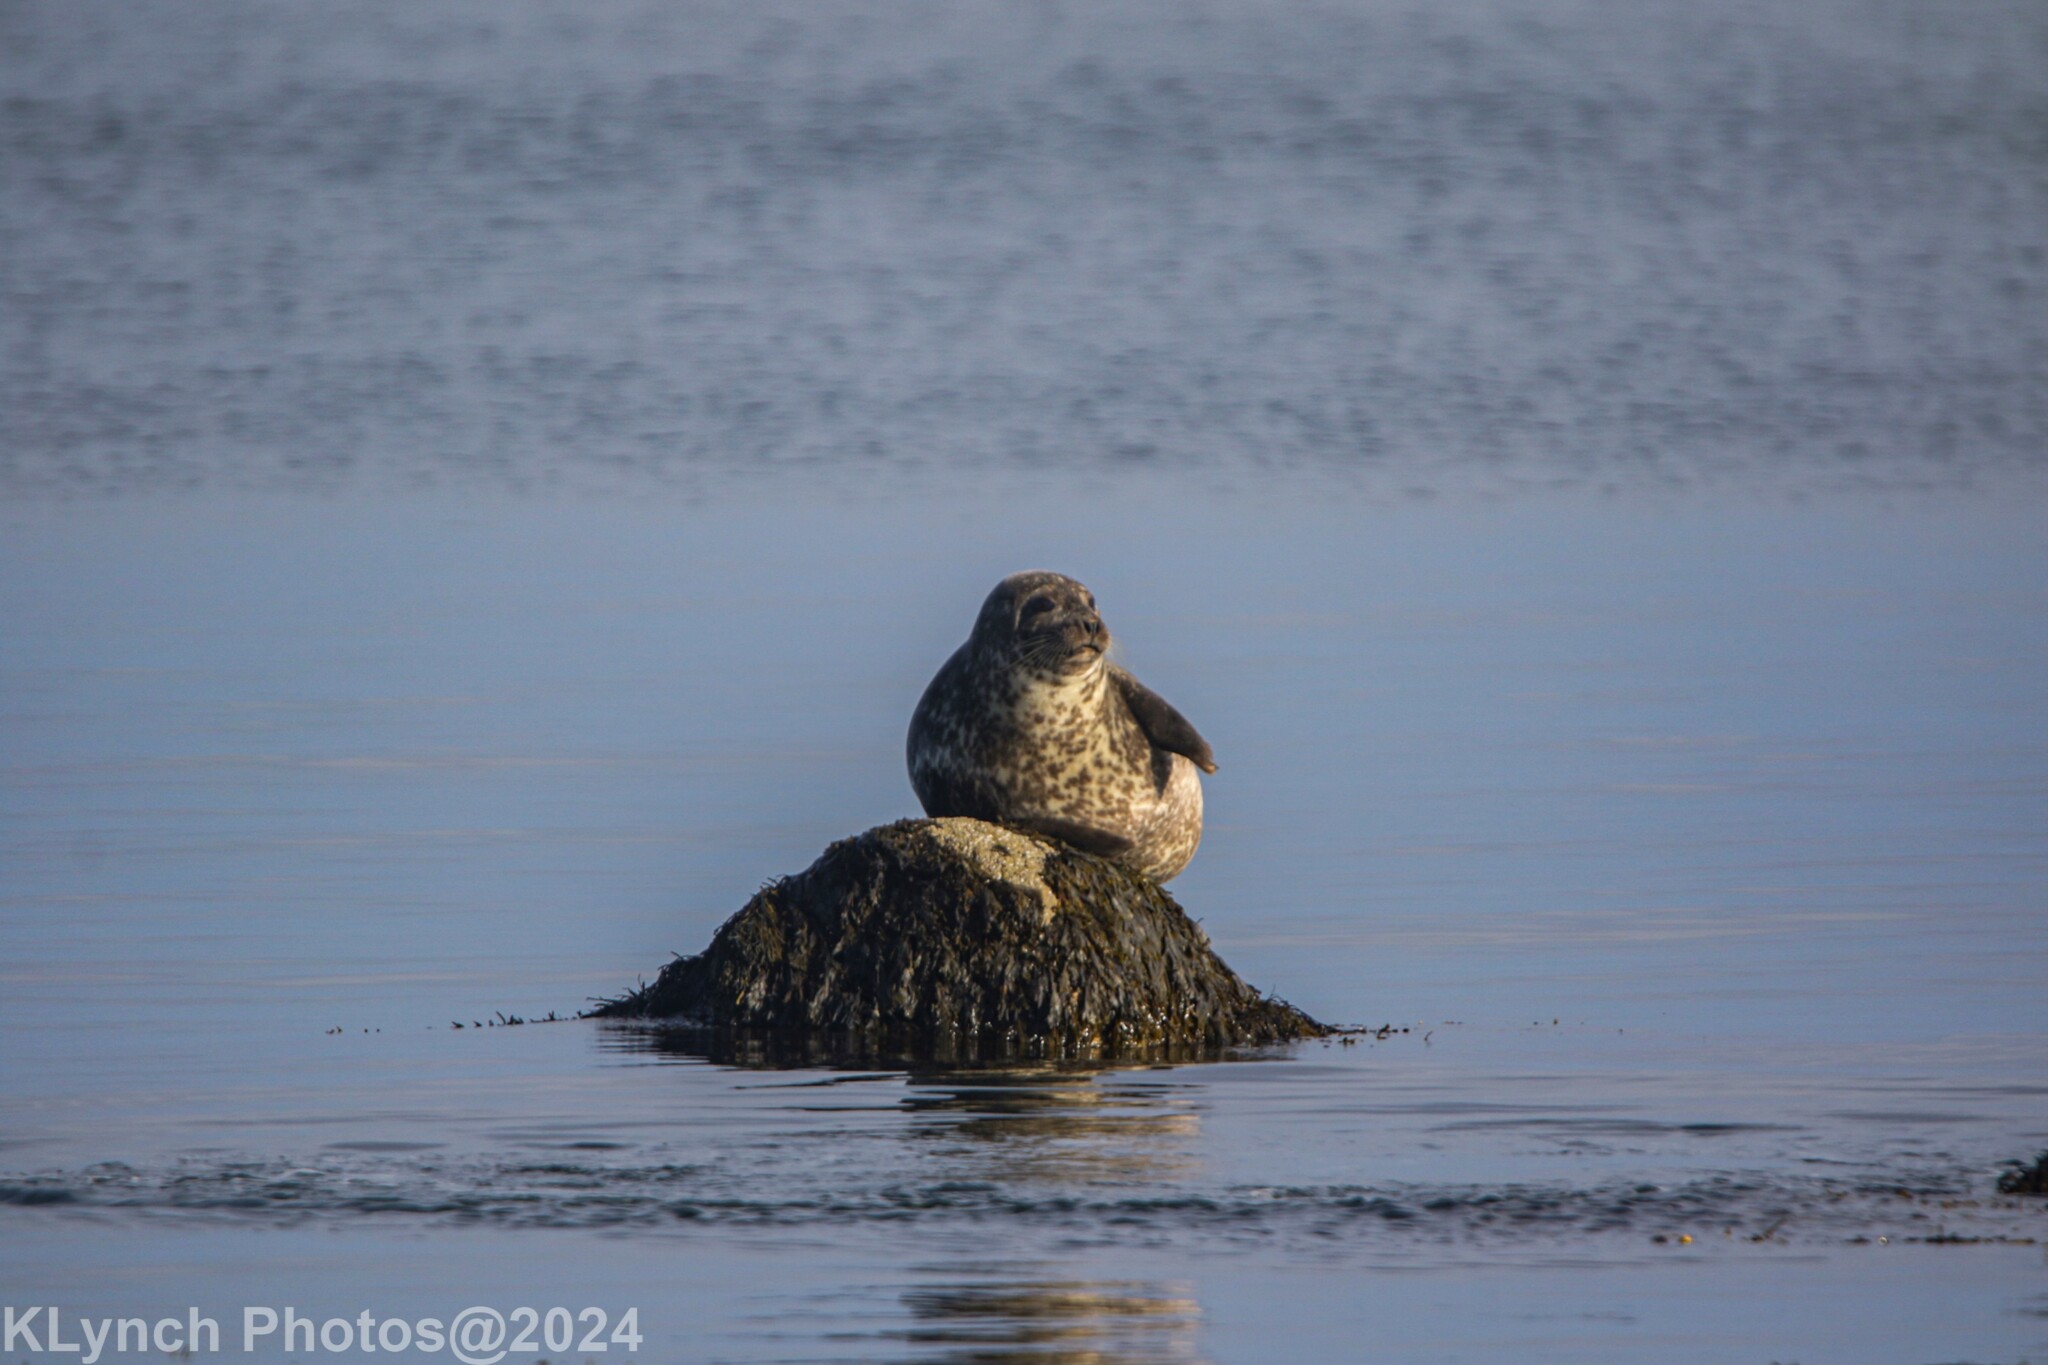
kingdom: Animalia
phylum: Chordata
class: Mammalia
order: Carnivora
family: Phocidae
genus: Phoca
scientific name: Phoca vitulina
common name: Harbor seal
